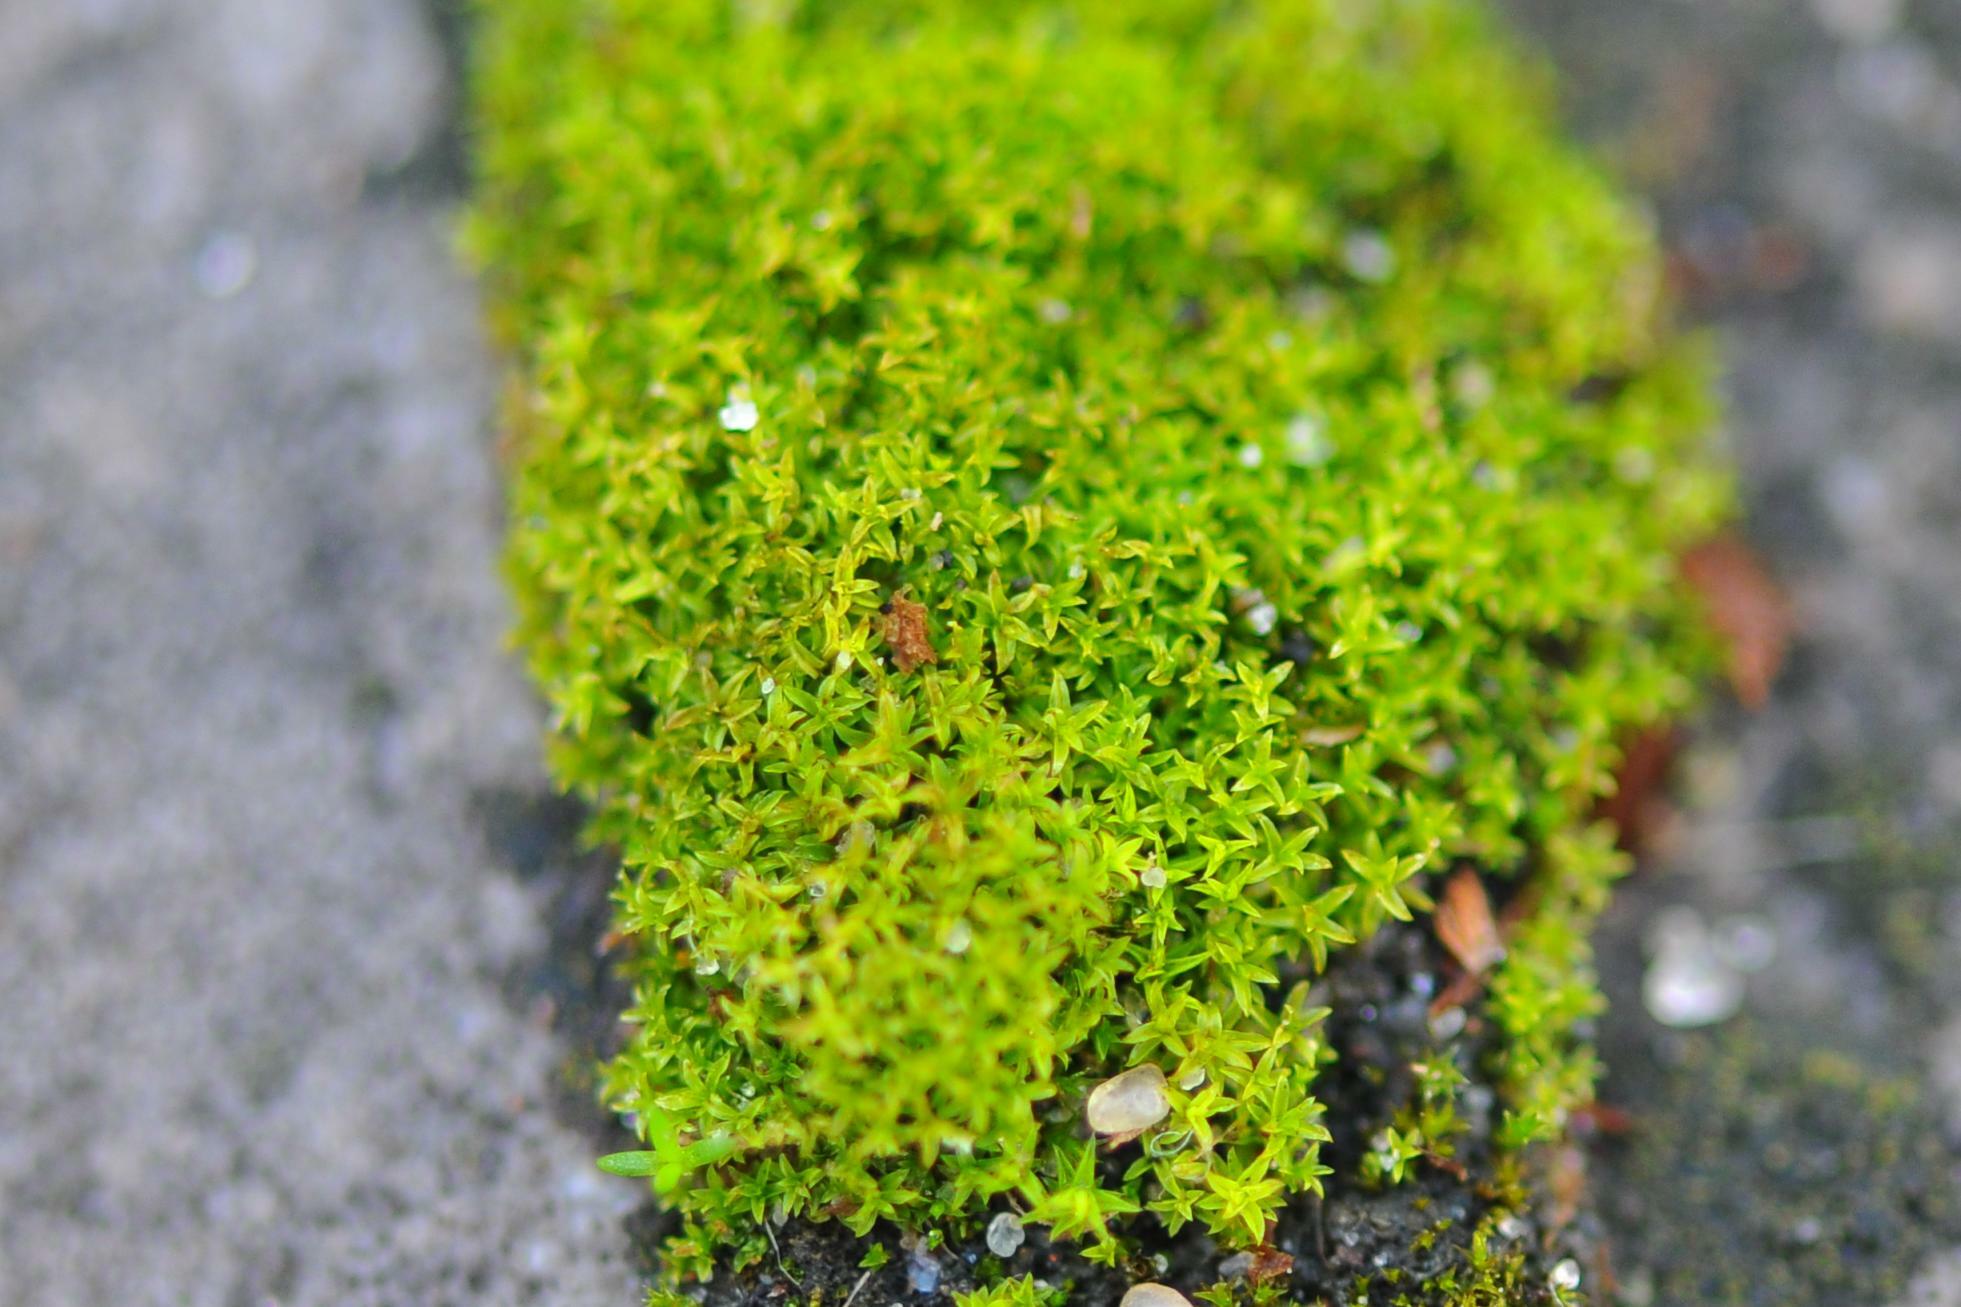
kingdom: Plantae
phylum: Bryophyta
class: Bryopsida
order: Pottiales
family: Pottiaceae
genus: Streblotrichum
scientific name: Streblotrichum convolutum
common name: Lesser bird's-claw beard-moss
